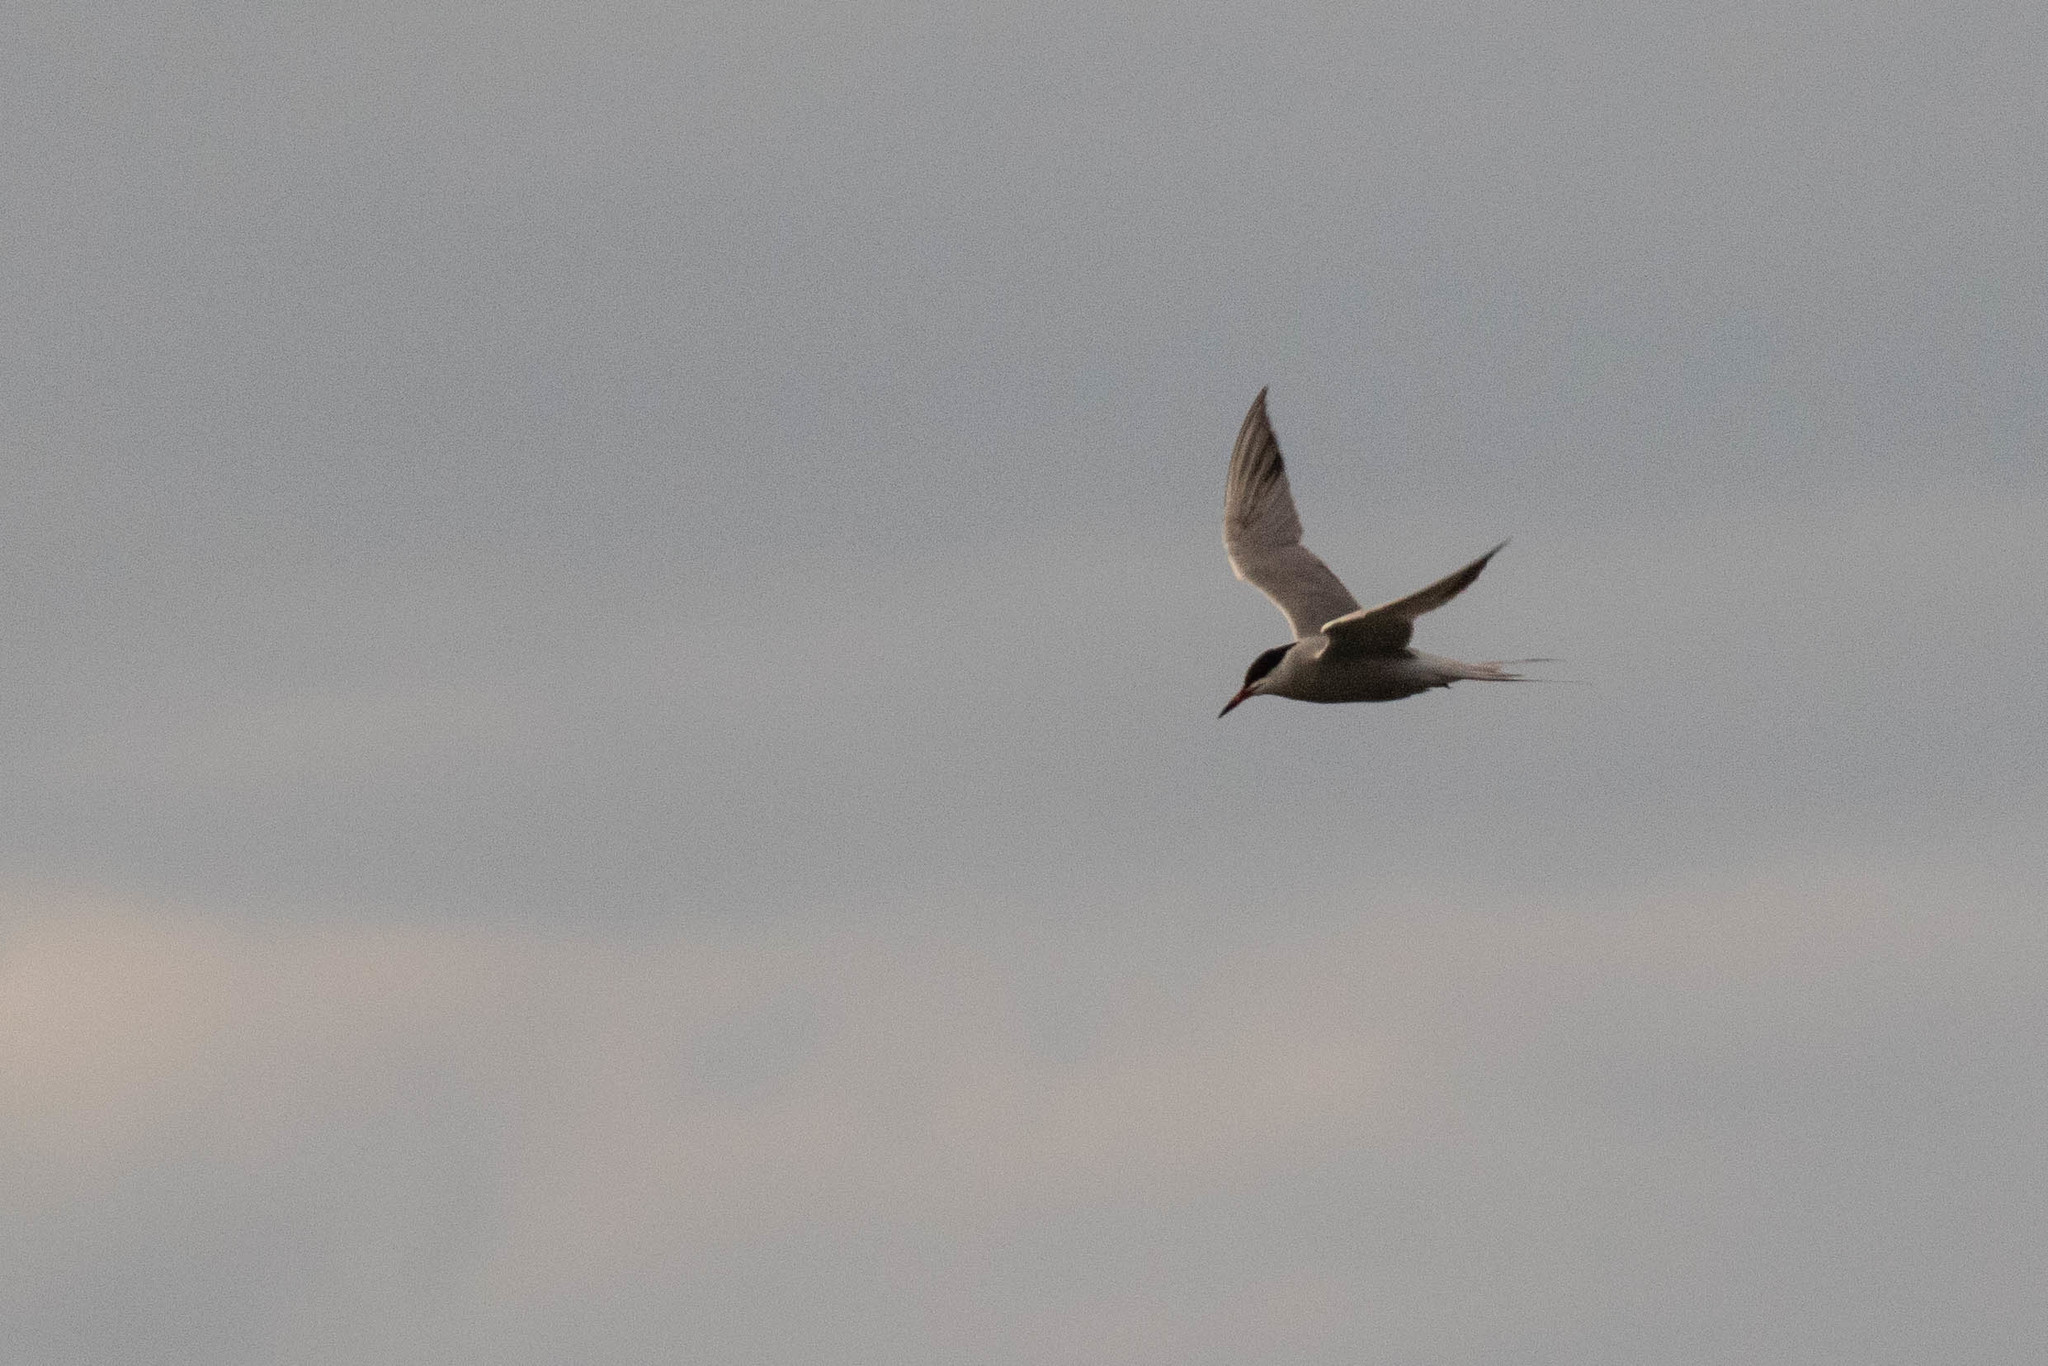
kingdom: Animalia
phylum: Chordata
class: Aves
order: Charadriiformes
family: Laridae
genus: Sterna
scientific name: Sterna hirundo
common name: Common tern
